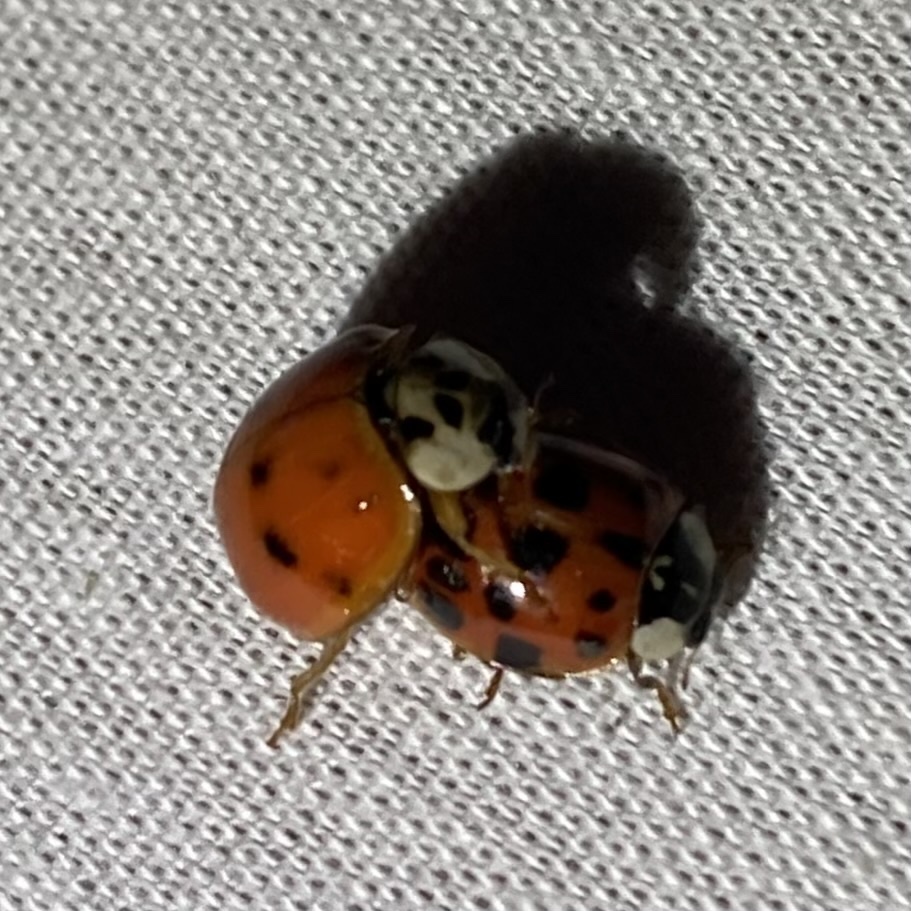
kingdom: Animalia
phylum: Arthropoda
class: Insecta
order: Coleoptera
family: Coccinellidae
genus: Harmonia
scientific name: Harmonia axyridis
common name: Harlequin ladybird
